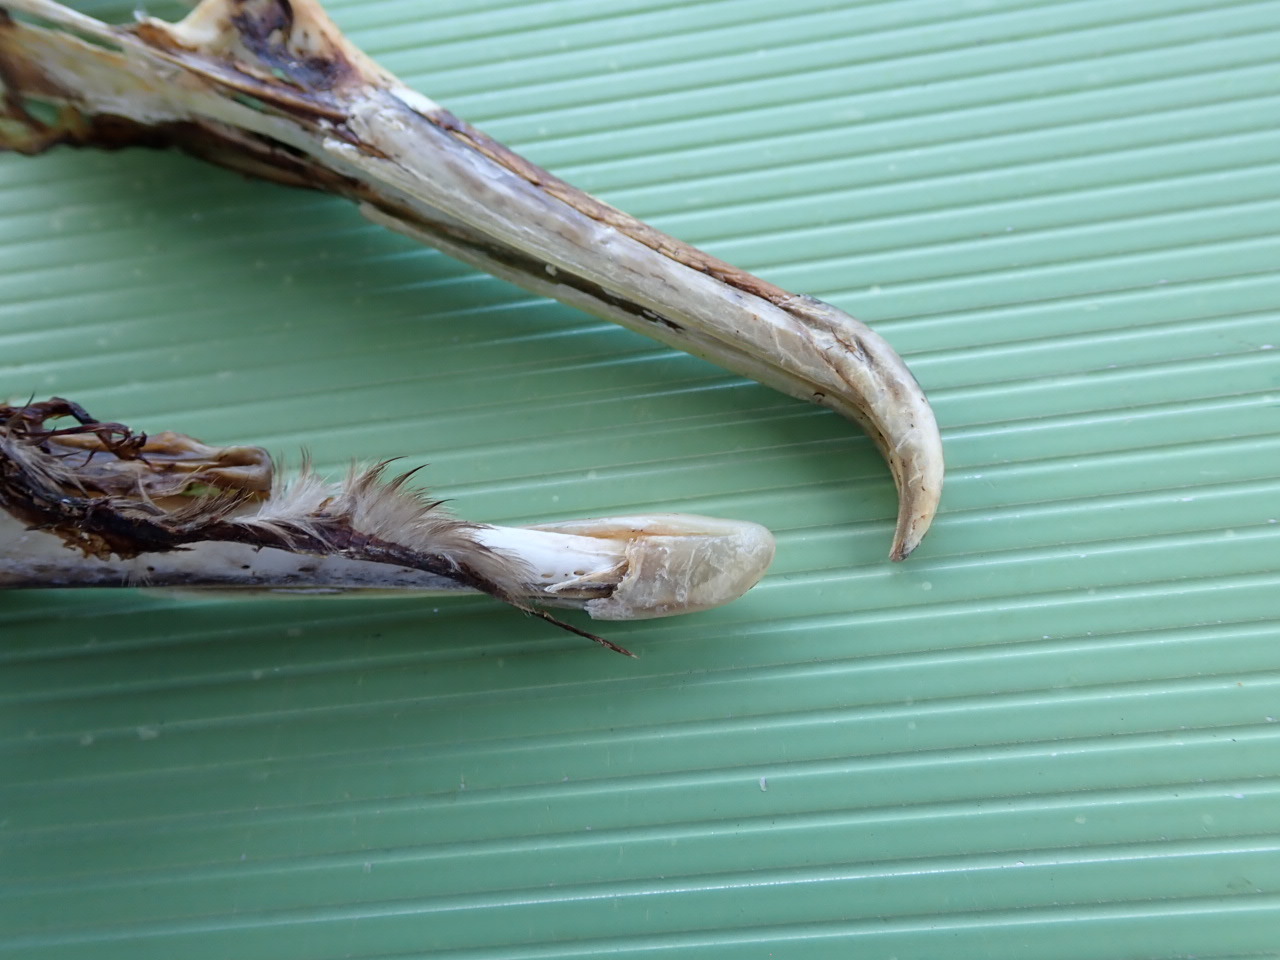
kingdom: Animalia
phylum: Chordata
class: Aves
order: Suliformes
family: Phalacrocoracidae
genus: Phalacrocorax
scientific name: Phalacrocorax auritus
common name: Double-crested cormorant
